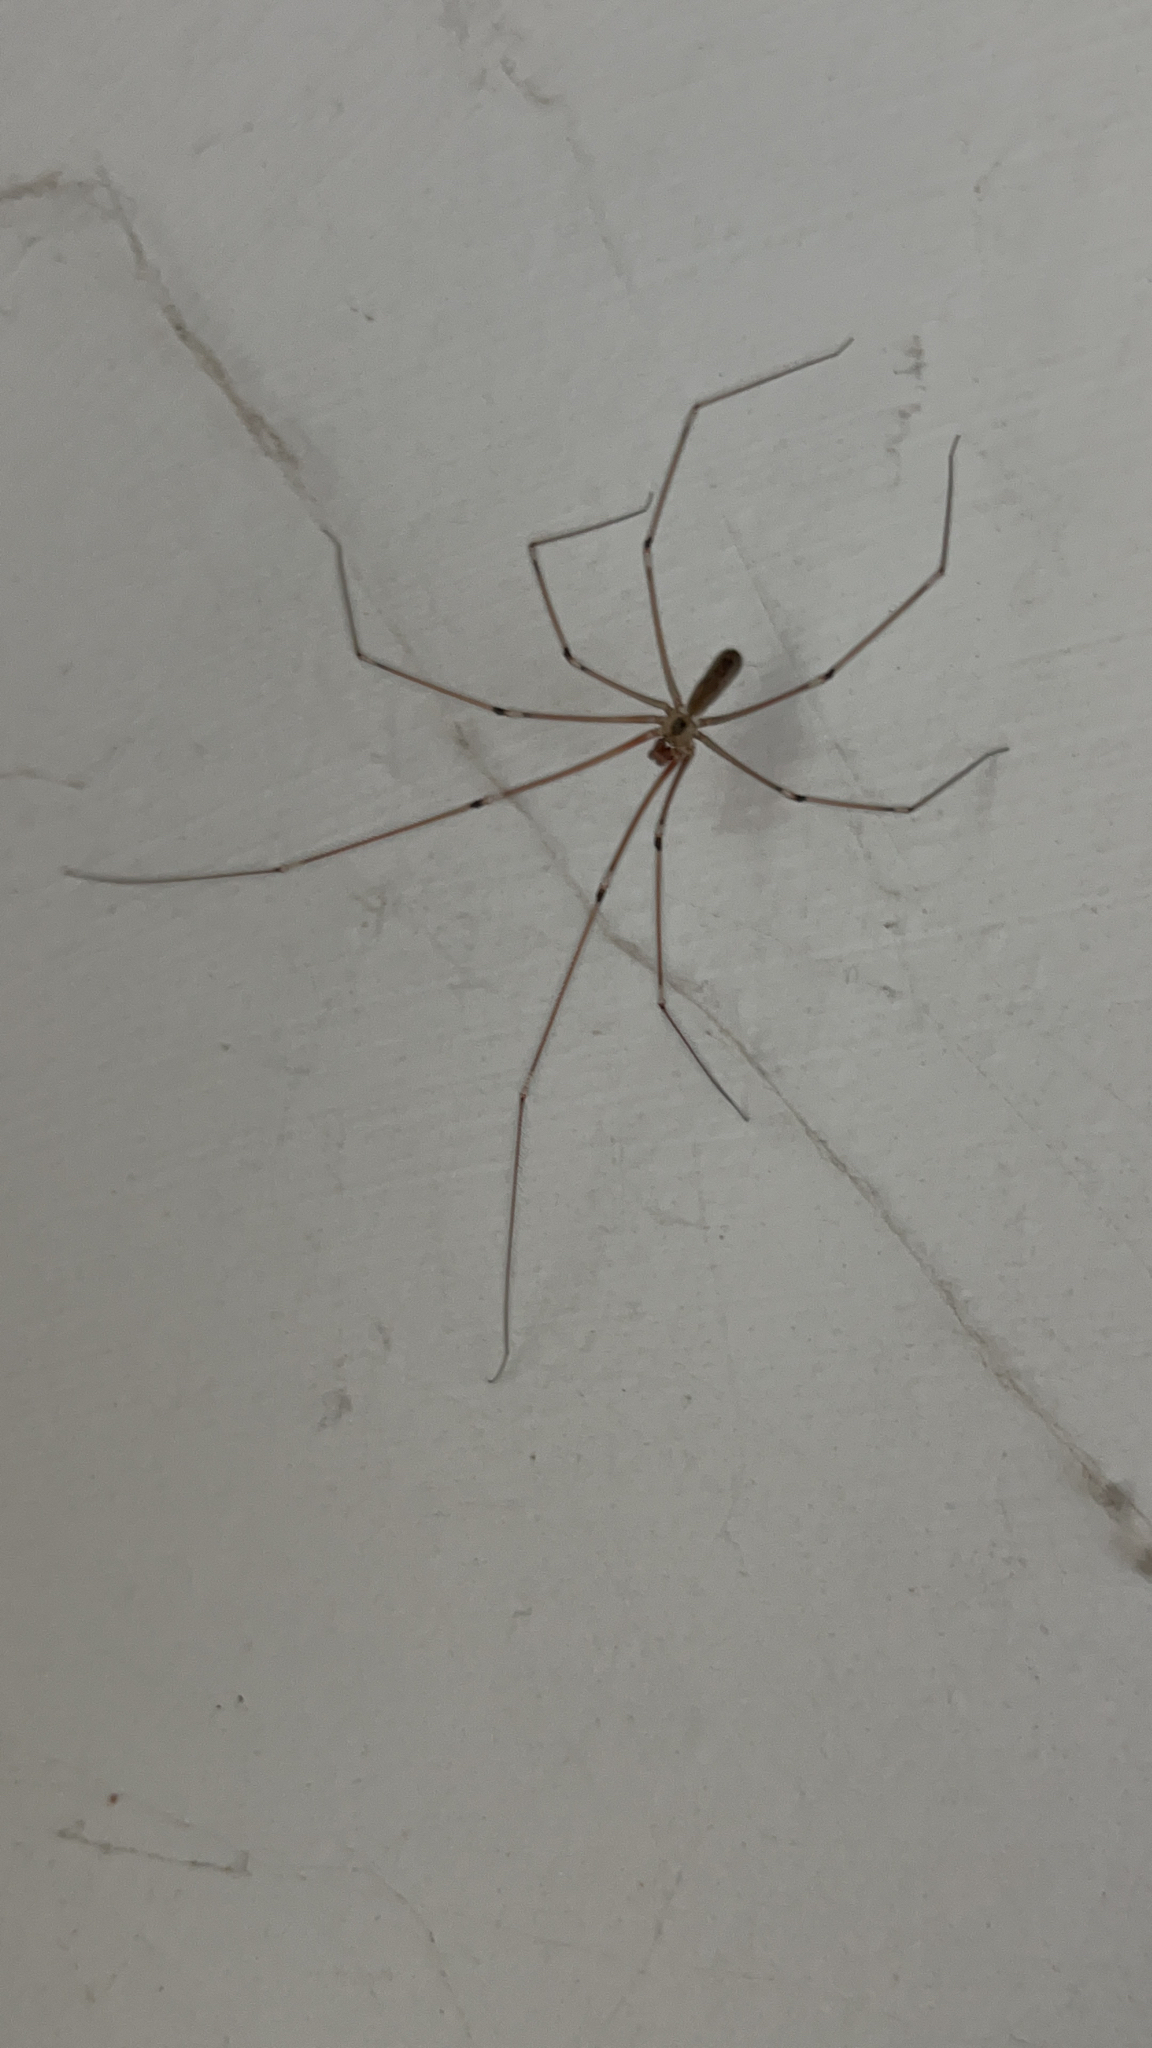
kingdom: Animalia
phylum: Arthropoda
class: Arachnida
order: Araneae
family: Pholcidae
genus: Pholcus
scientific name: Pholcus phalangioides
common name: Longbodied cellar spider
